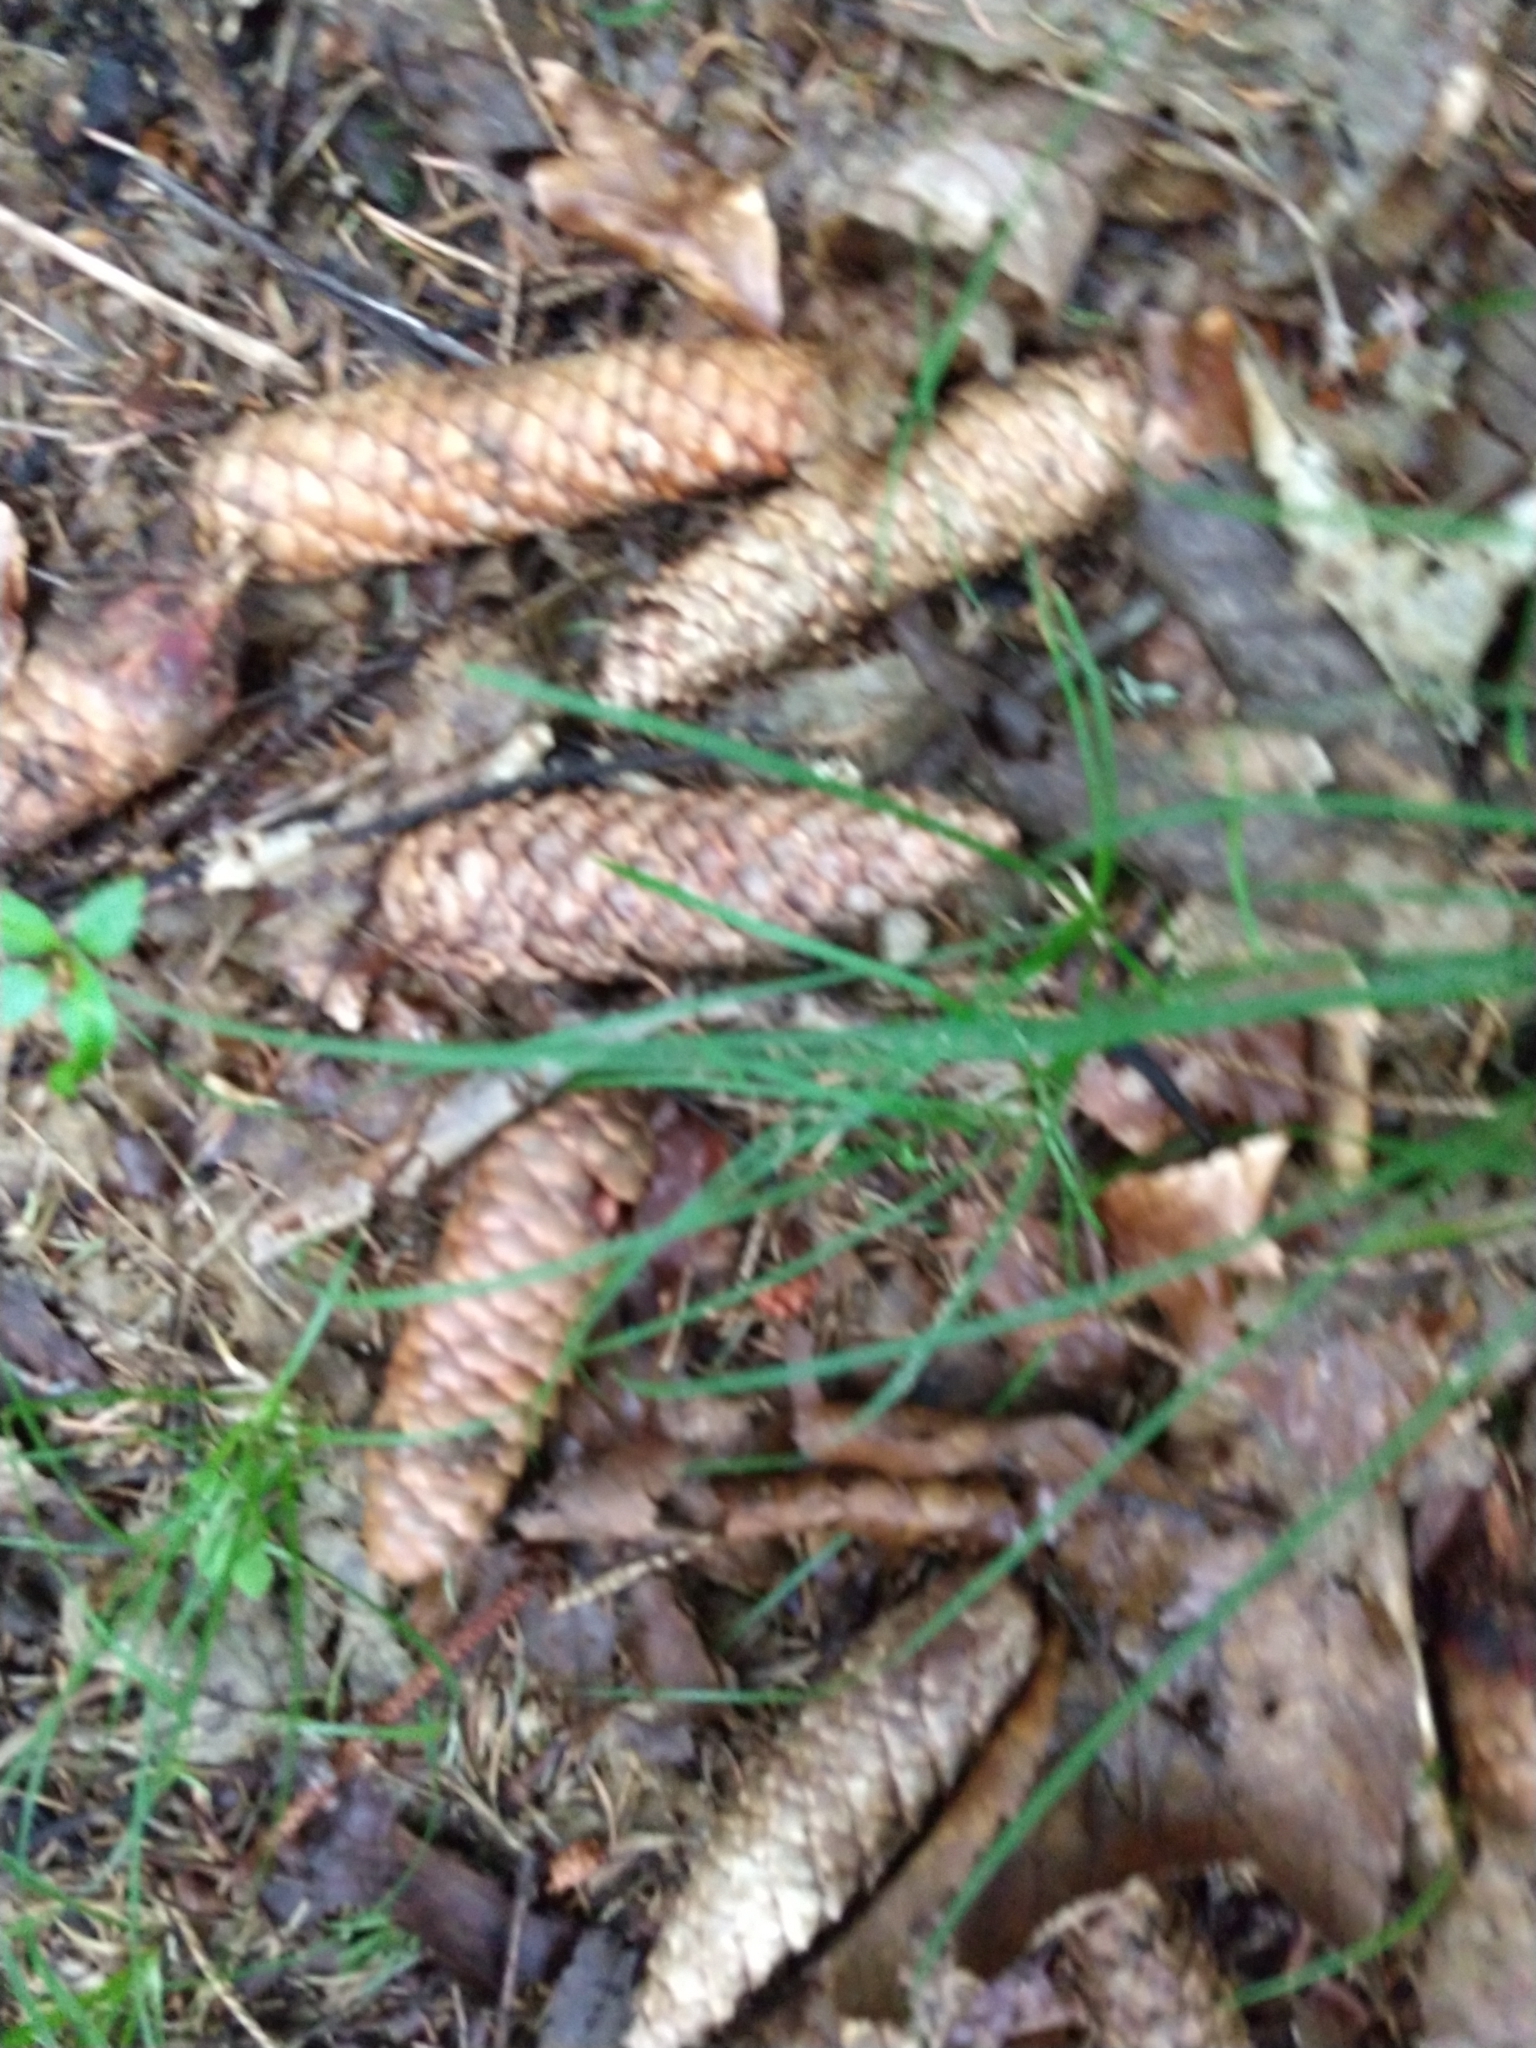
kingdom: Plantae
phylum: Tracheophyta
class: Pinopsida
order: Pinales
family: Pinaceae
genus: Picea
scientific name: Picea abies
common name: Norway spruce
